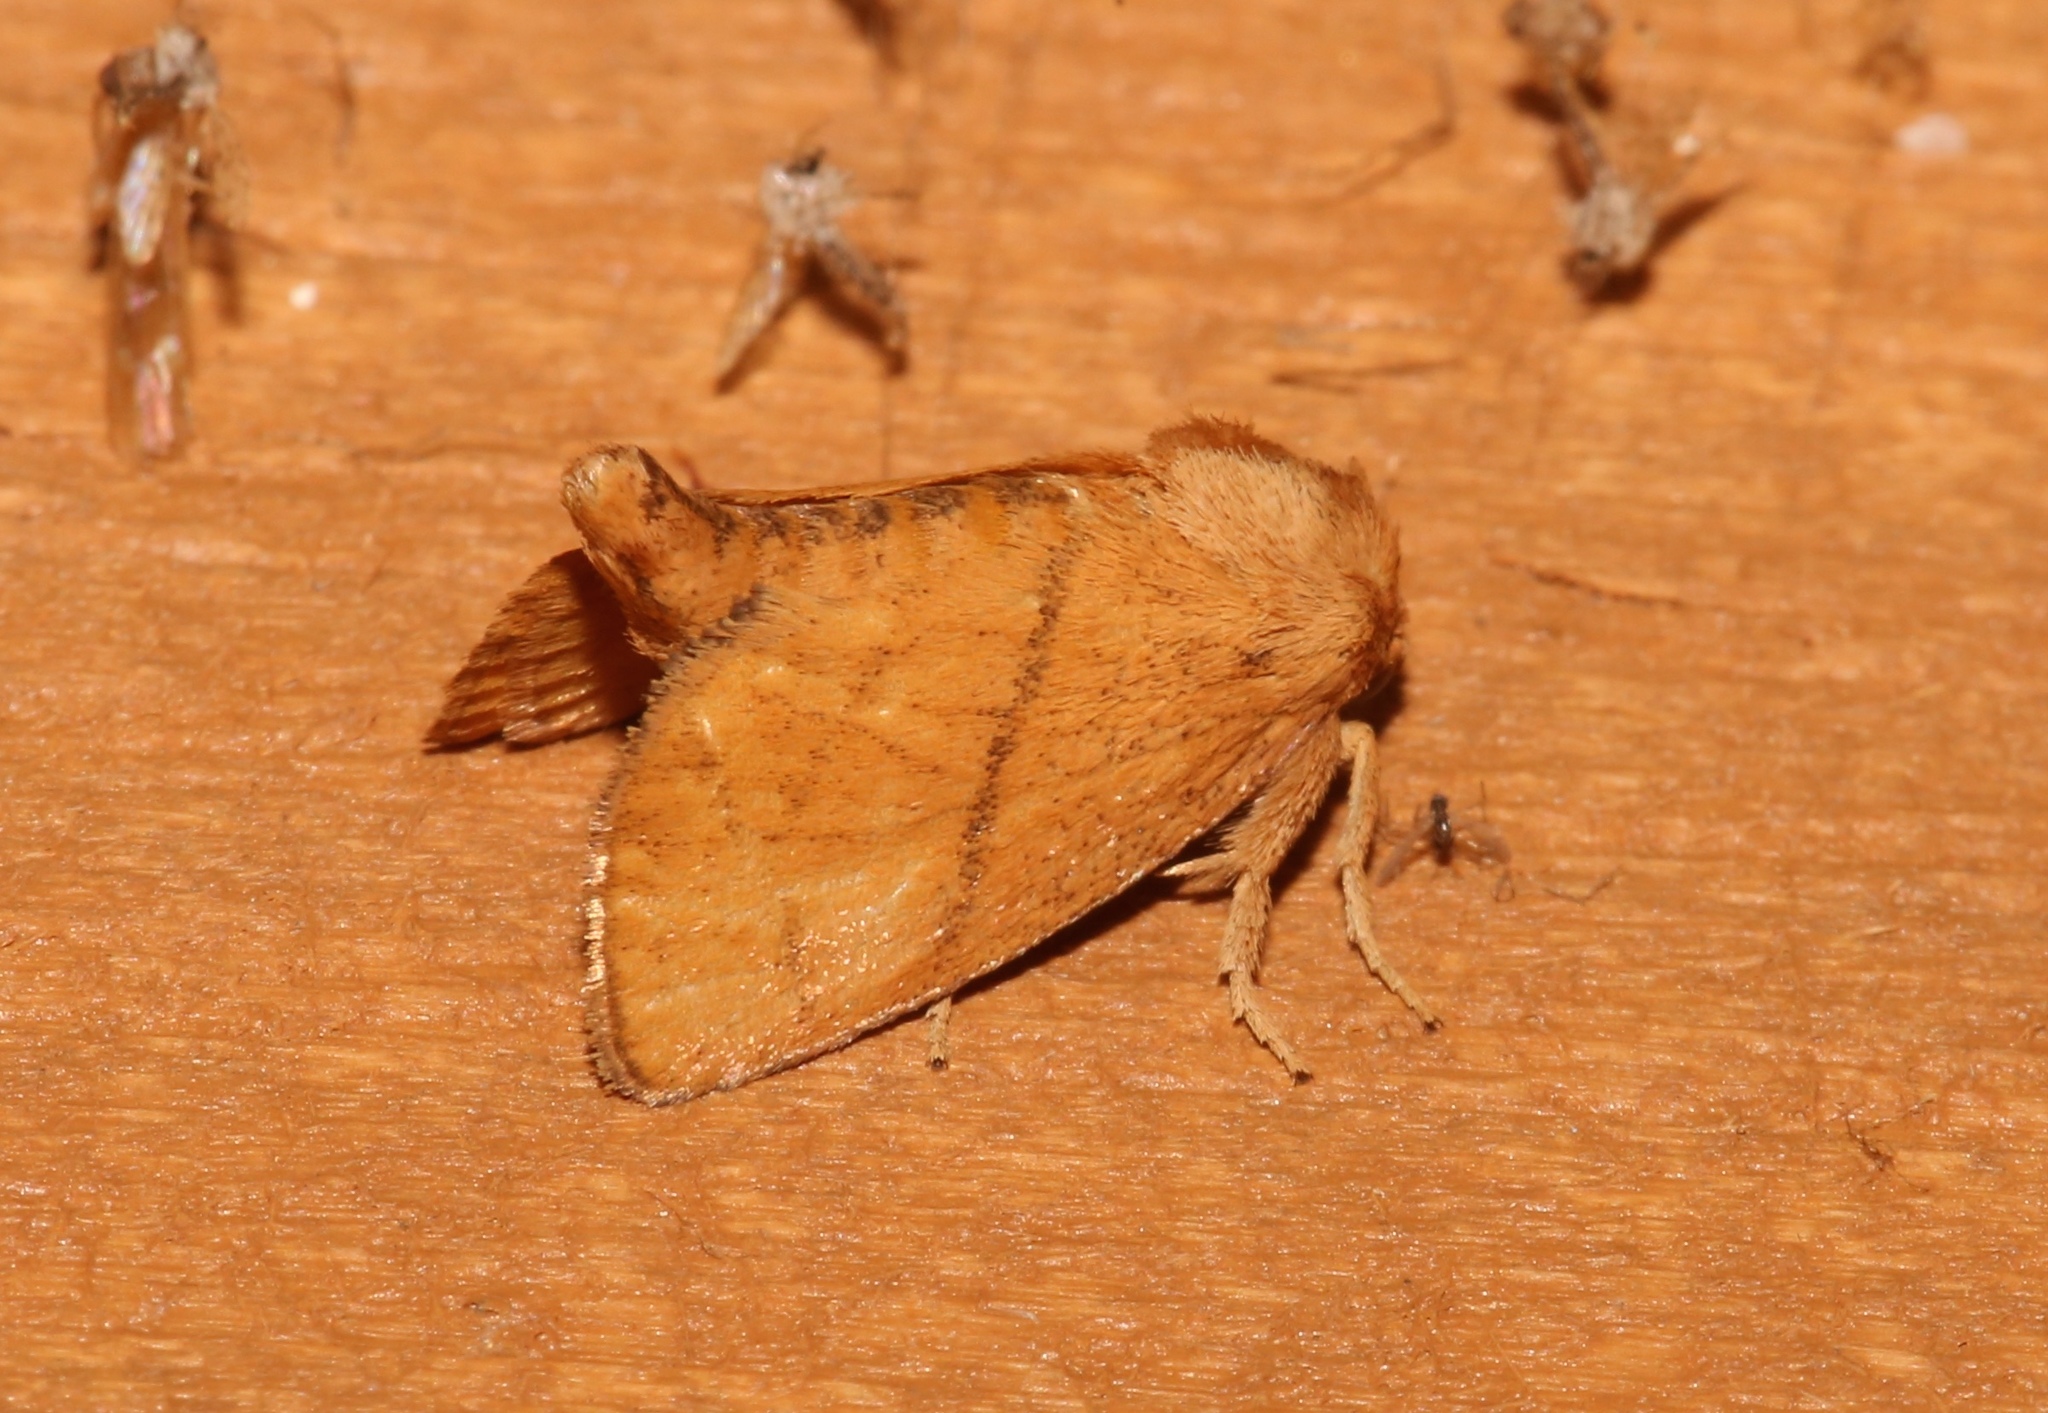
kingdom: Animalia
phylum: Arthropoda
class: Insecta
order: Lepidoptera
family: Limacodidae
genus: Apoda
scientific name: Apoda y-inversa
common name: Yellow-collared slug moth
